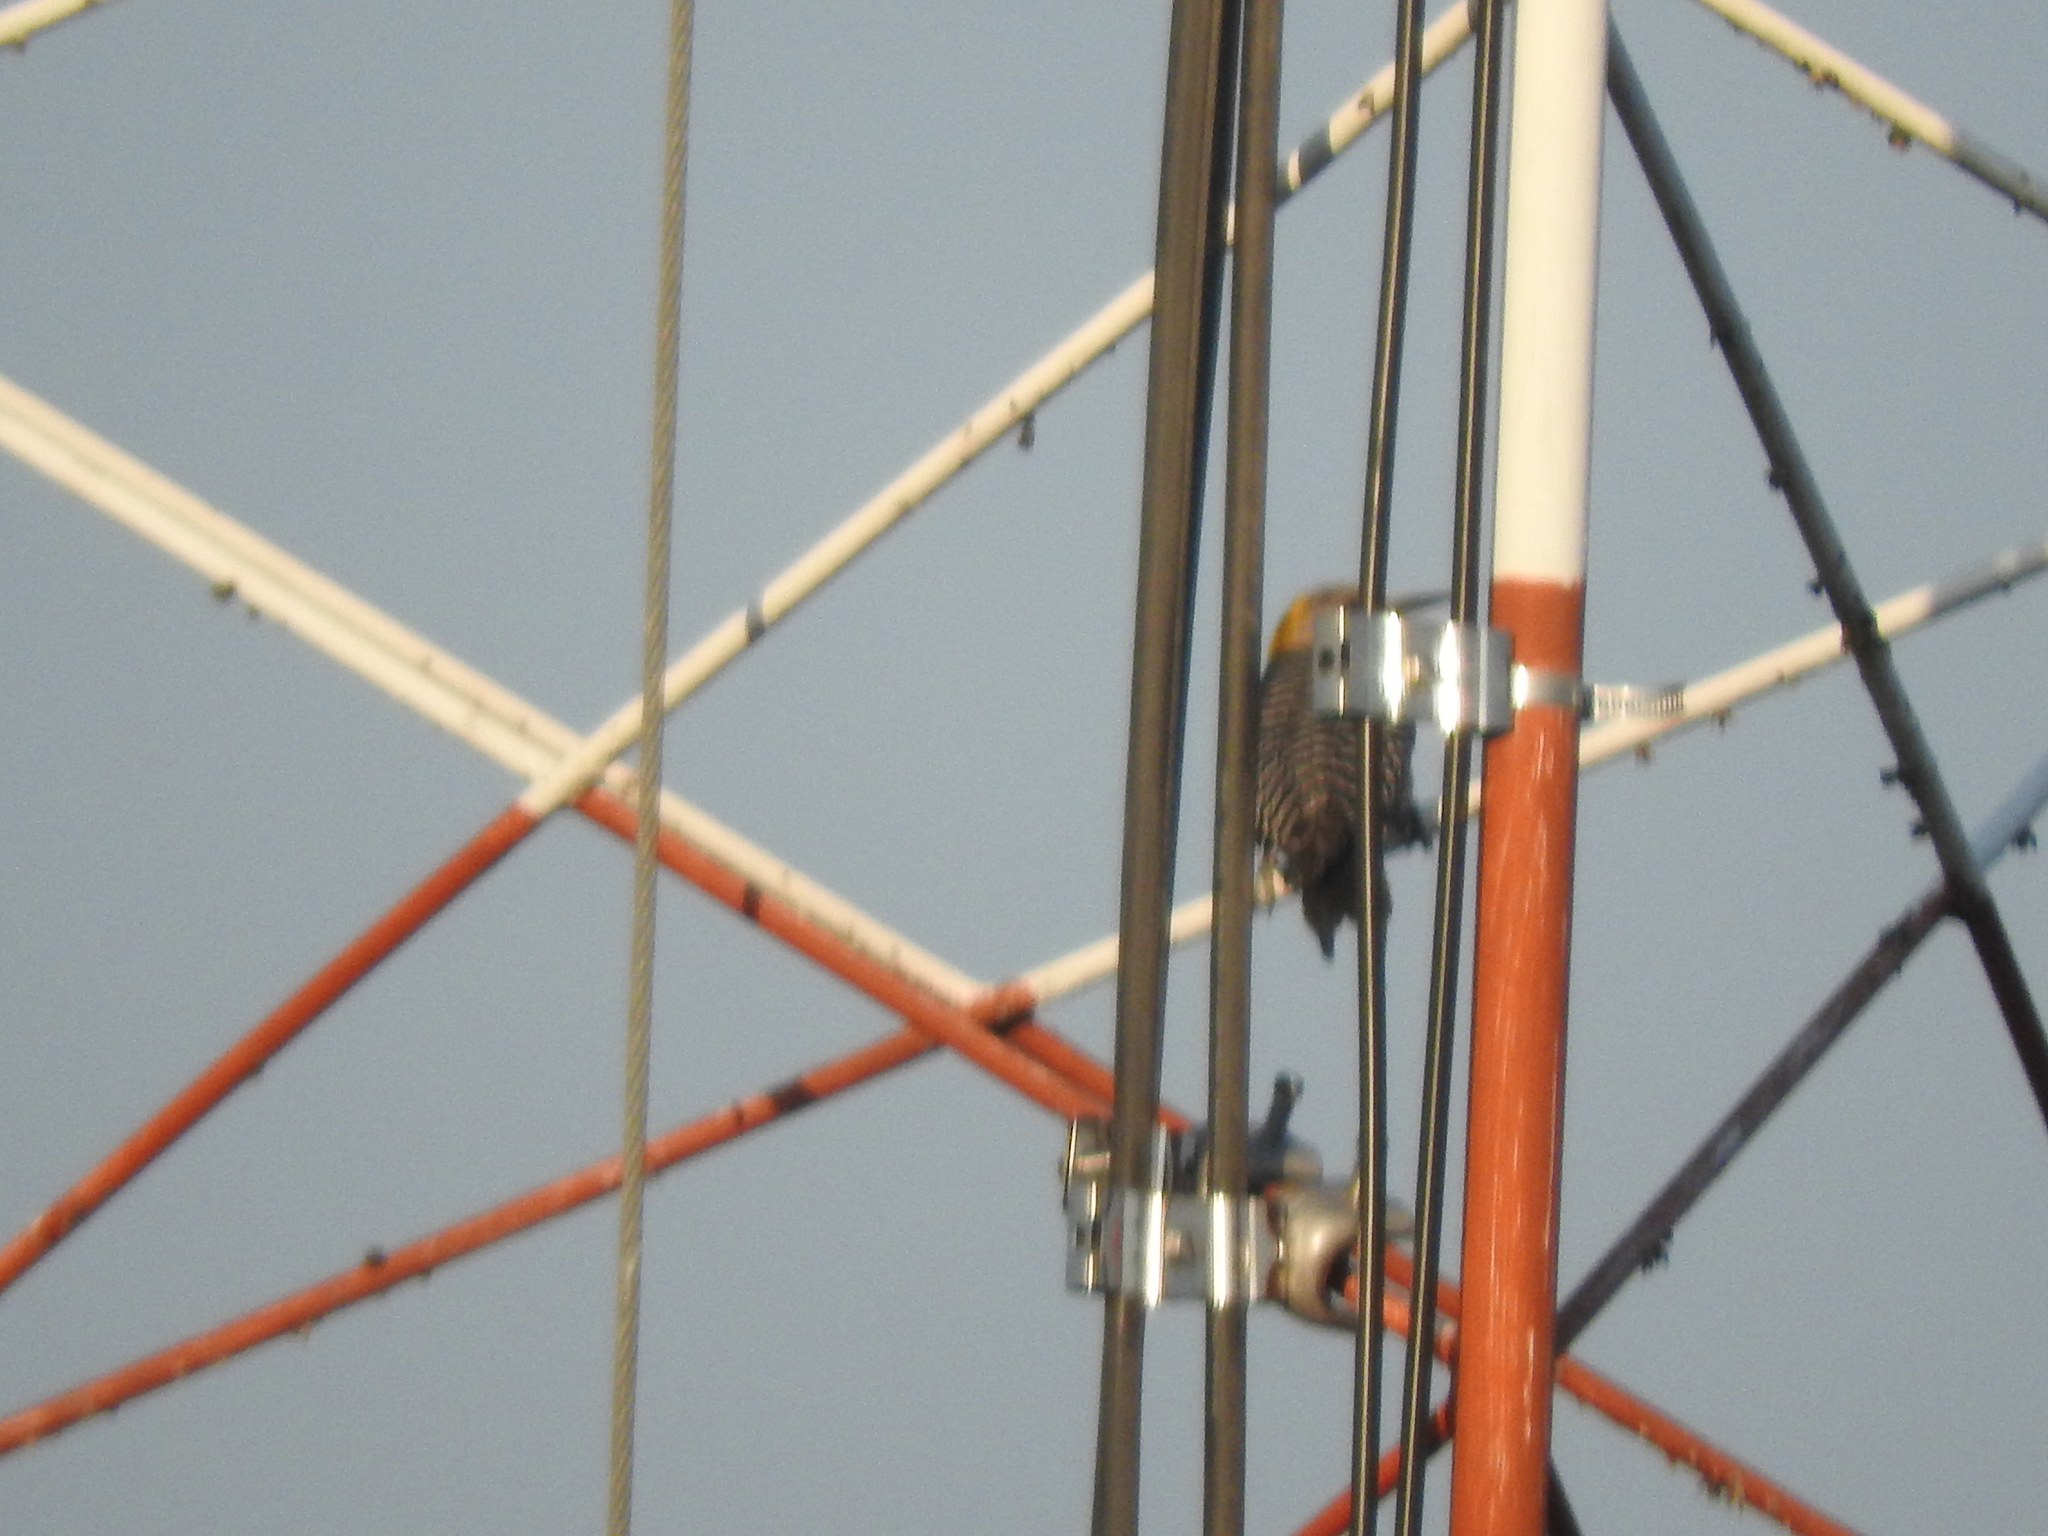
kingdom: Animalia
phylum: Chordata
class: Aves
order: Piciformes
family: Picidae
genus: Melanerpes
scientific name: Melanerpes aurifrons
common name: Golden-fronted woodpecker
